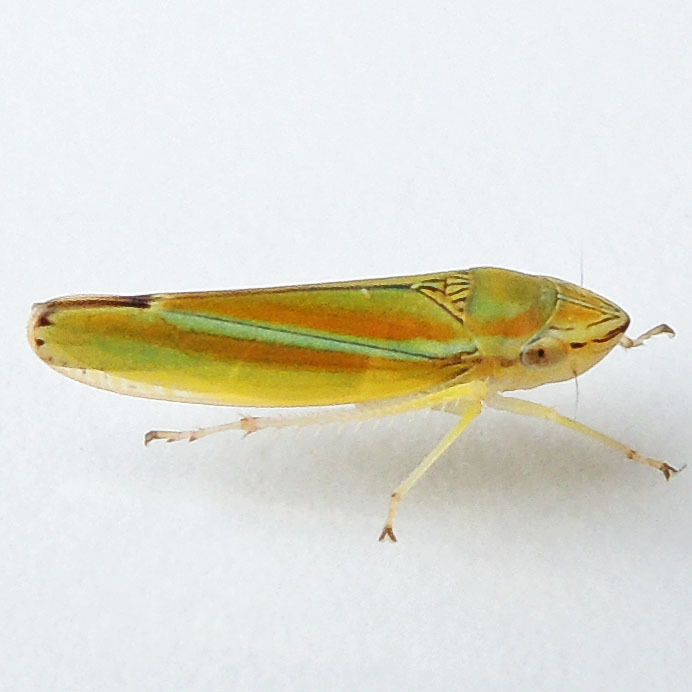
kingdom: Animalia
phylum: Arthropoda
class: Insecta
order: Hemiptera
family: Cicadellidae
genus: Graphocephala
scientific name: Graphocephala versuta
